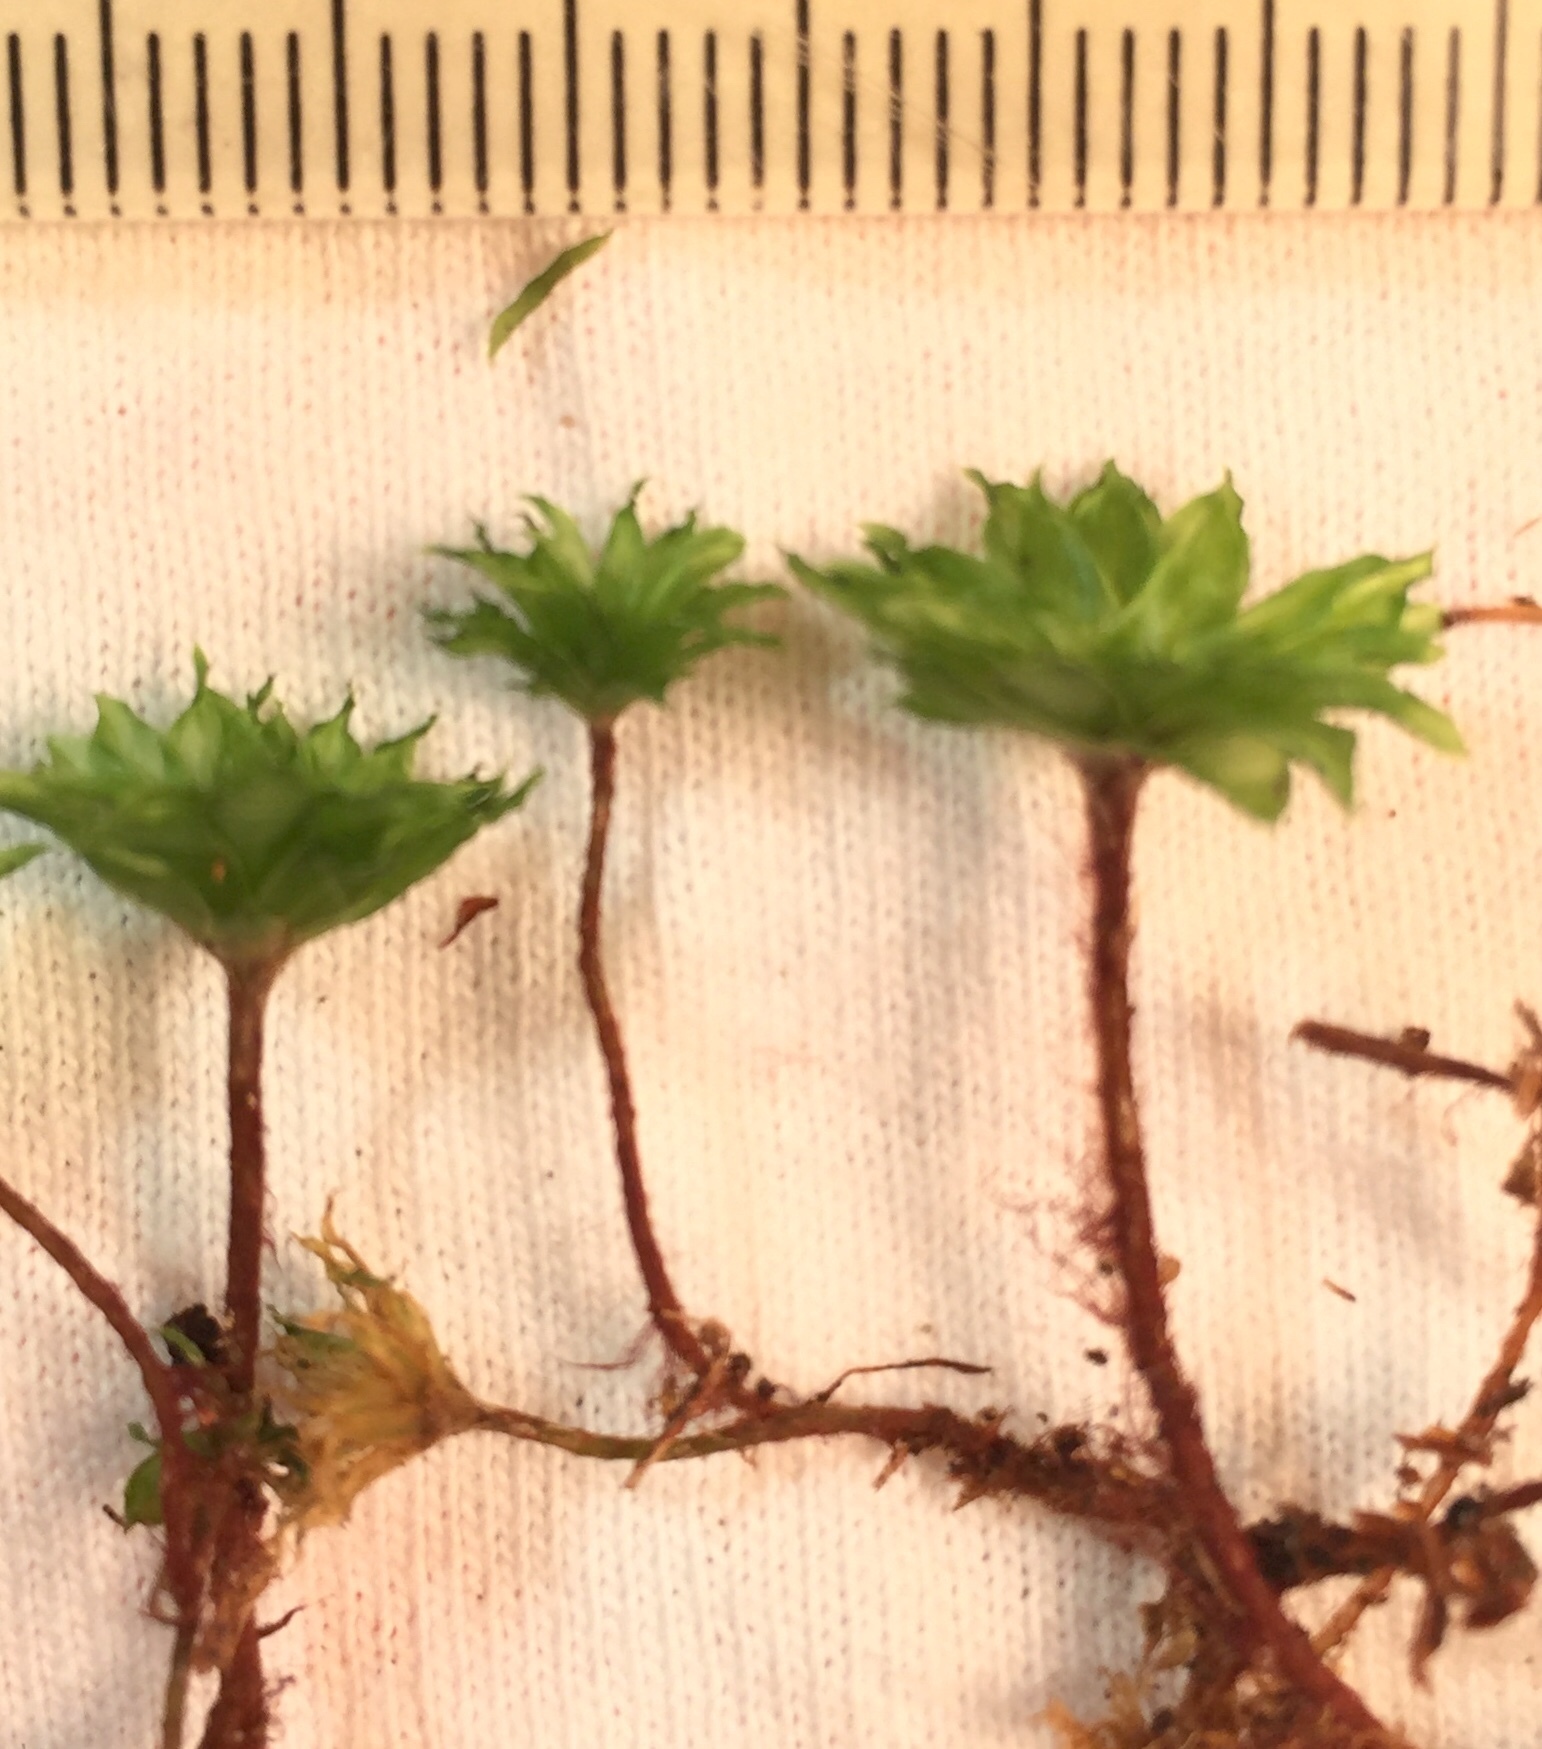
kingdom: Plantae
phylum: Bryophyta
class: Bryopsida
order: Bryales
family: Bryaceae
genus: Rhodobryum
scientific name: Rhodobryum ontariense
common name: Ontario rhodobryum moss
